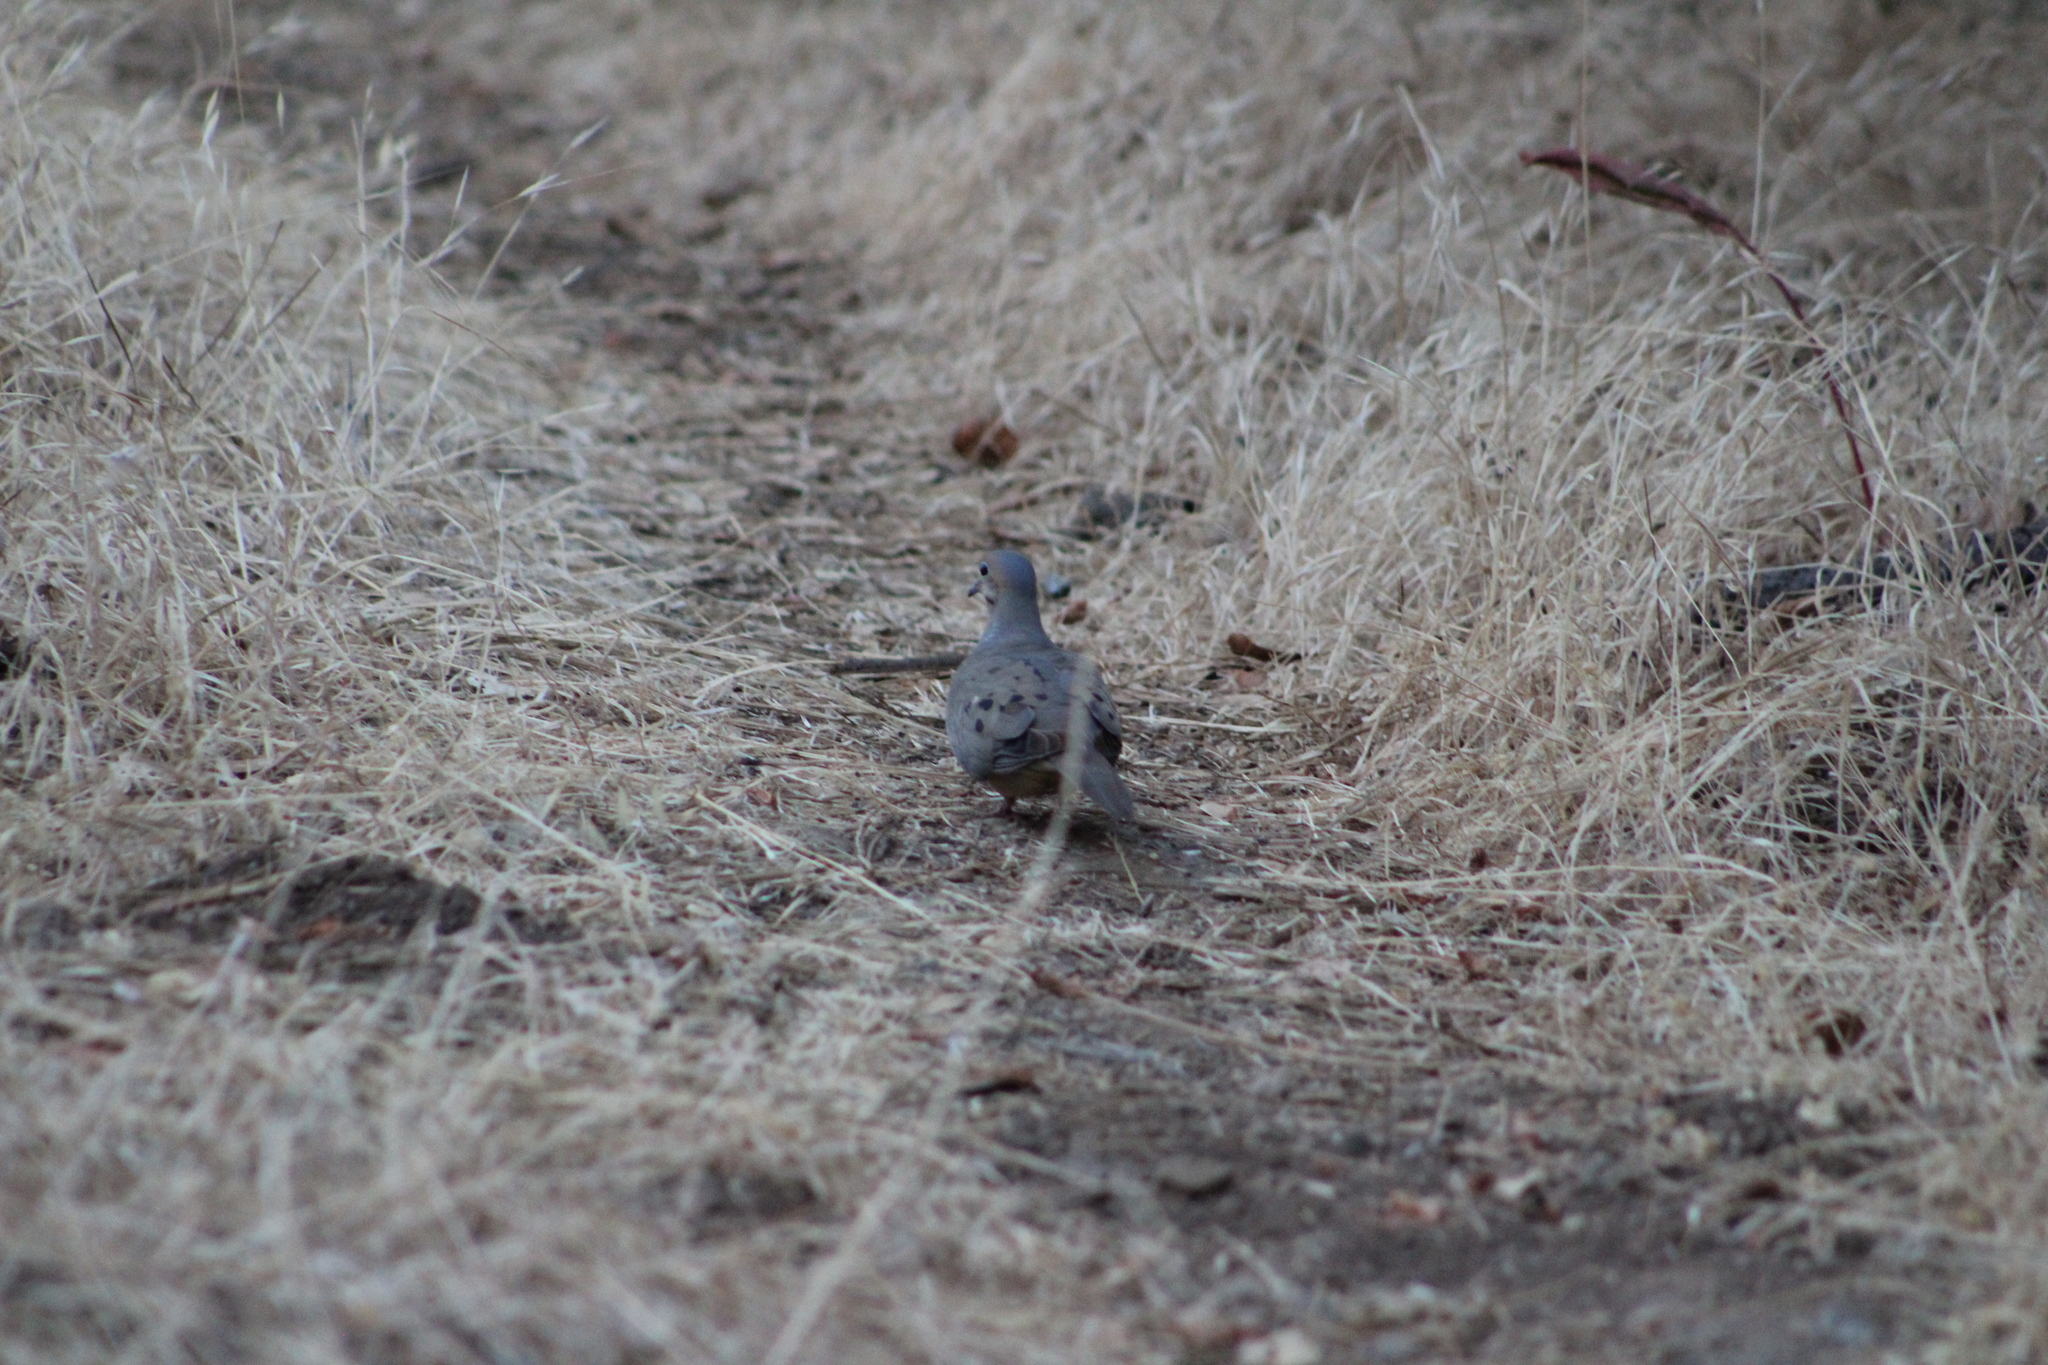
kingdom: Animalia
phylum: Chordata
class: Aves
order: Columbiformes
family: Columbidae
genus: Zenaida
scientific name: Zenaida macroura
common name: Mourning dove
